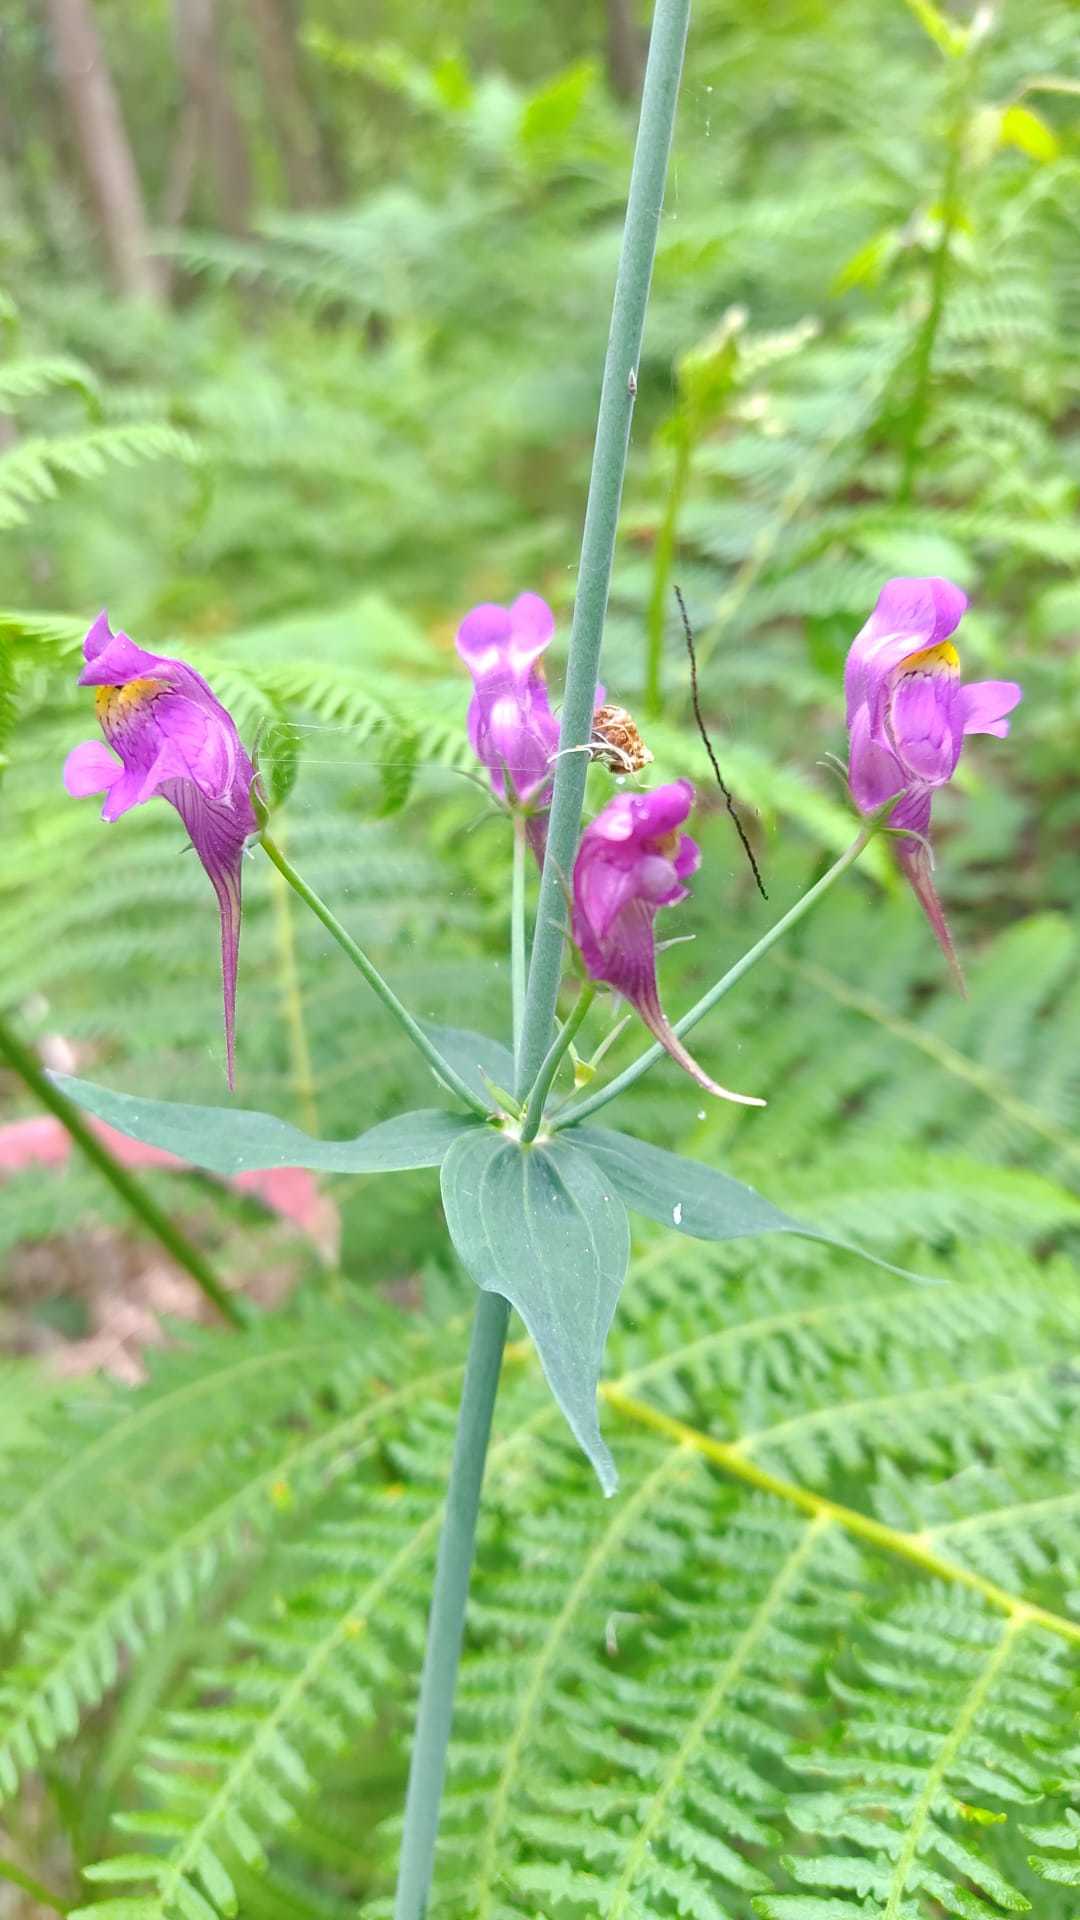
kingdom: Plantae
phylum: Tracheophyta
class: Magnoliopsida
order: Lamiales
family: Plantaginaceae
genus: Linaria
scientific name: Linaria triornithophora
